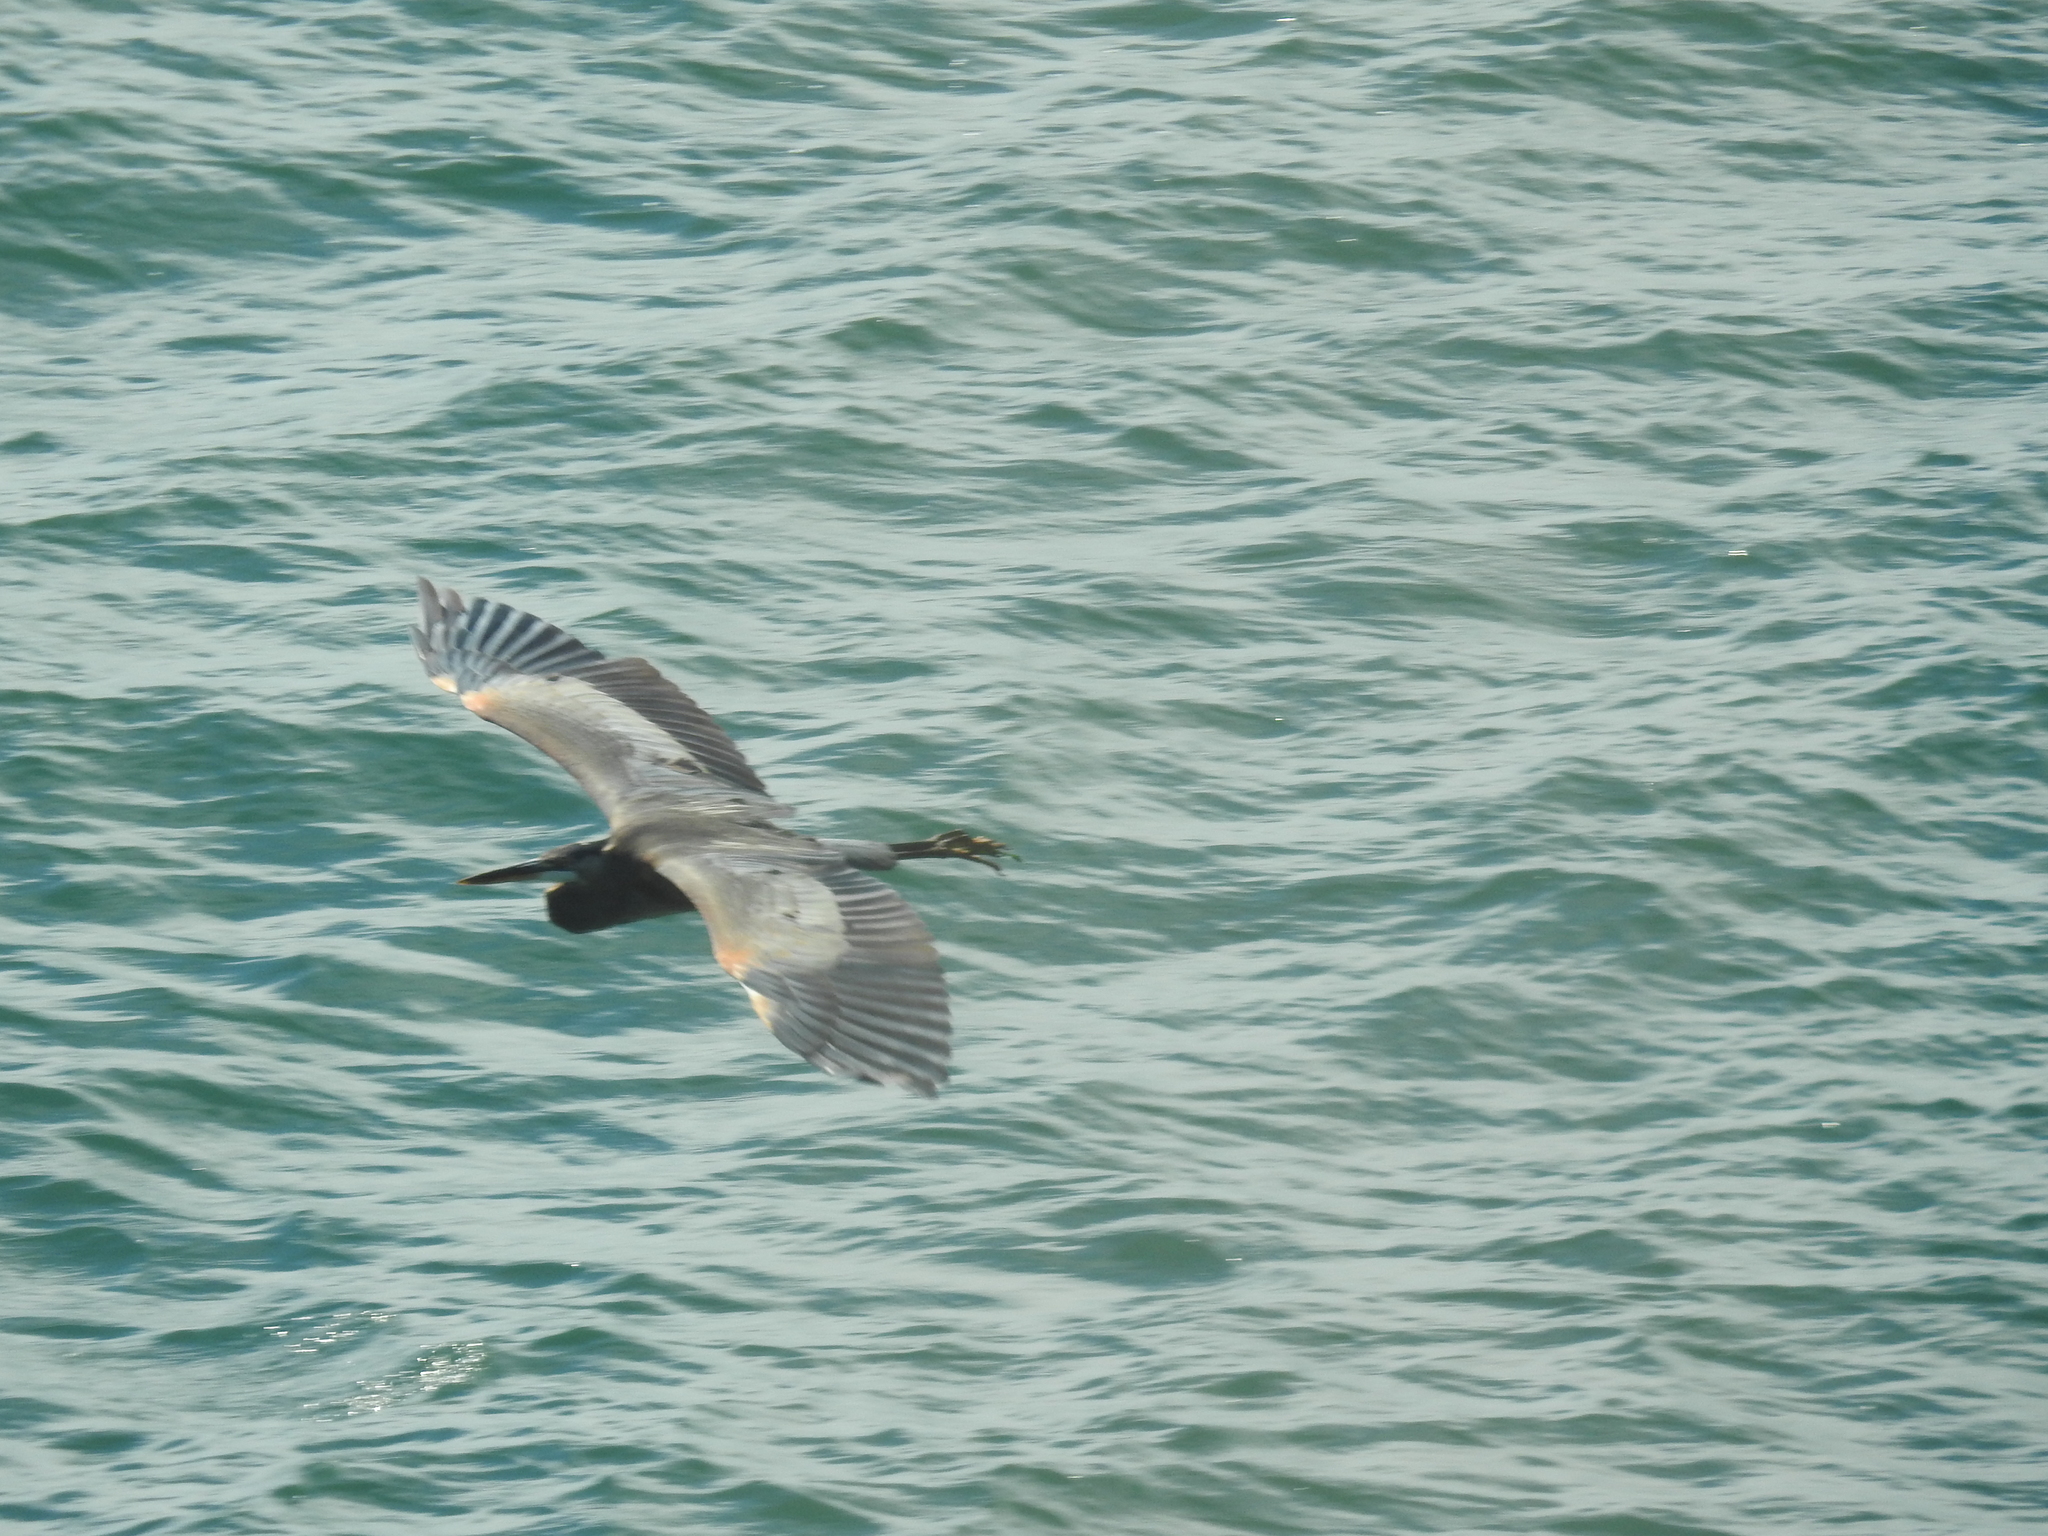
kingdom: Animalia
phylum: Chordata
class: Aves
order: Pelecaniformes
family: Ardeidae
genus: Ardea
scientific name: Ardea herodias
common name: Great blue heron
